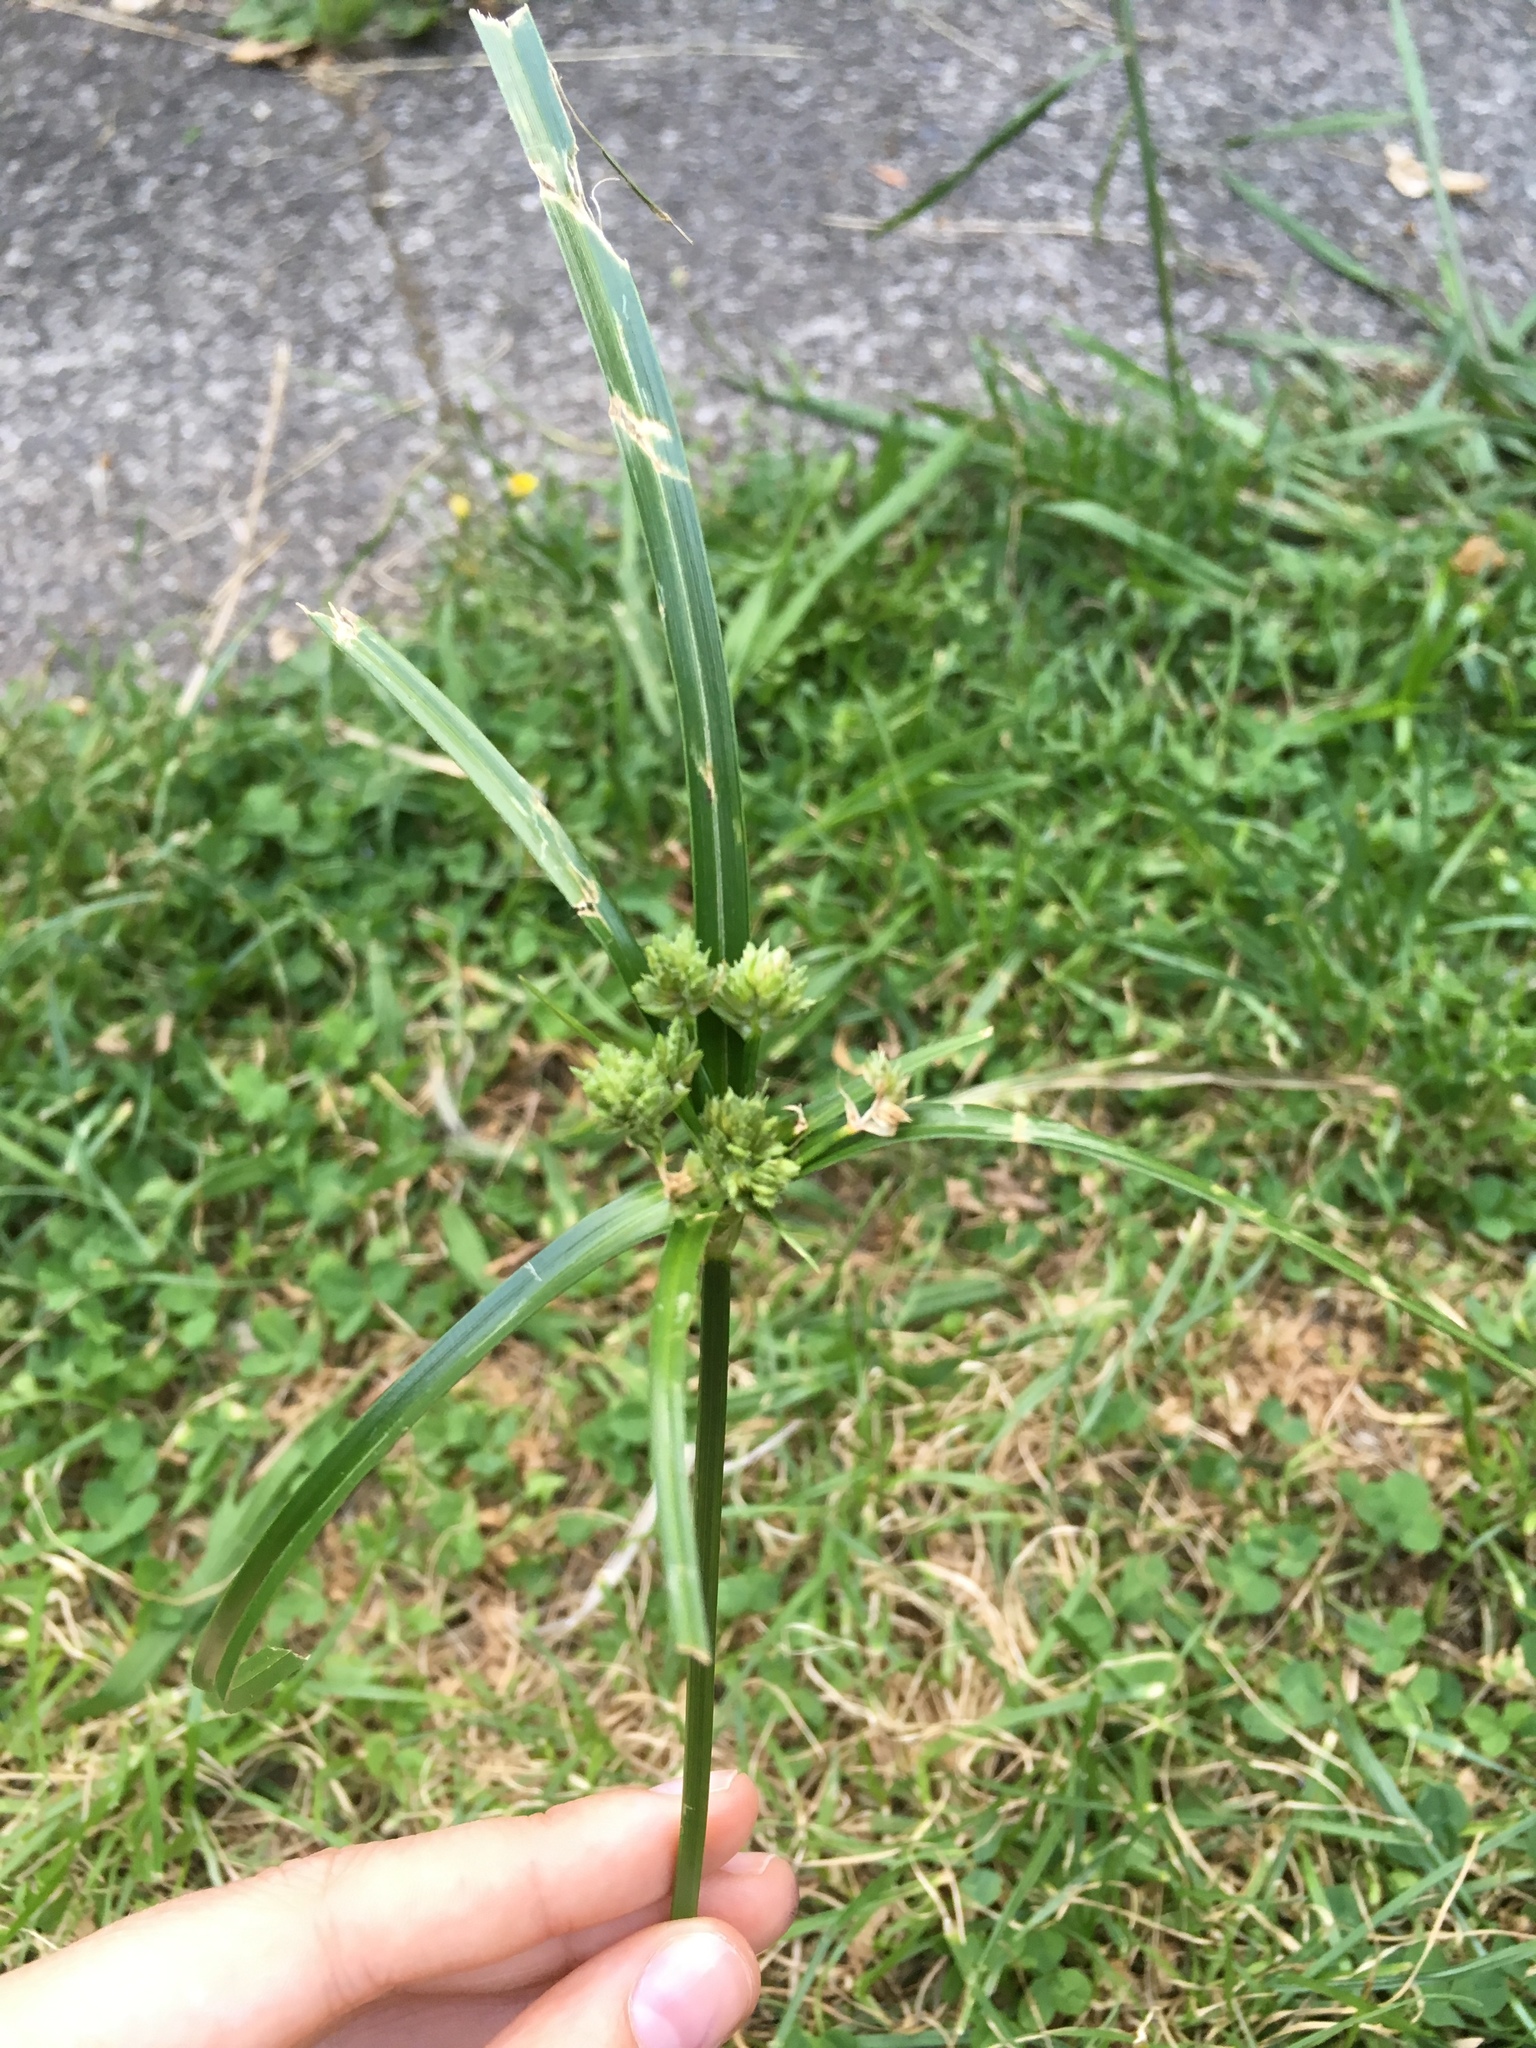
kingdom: Plantae
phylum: Tracheophyta
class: Liliopsida
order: Poales
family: Cyperaceae
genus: Cyperus
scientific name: Cyperus eragrostis
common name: Tall flatsedge
